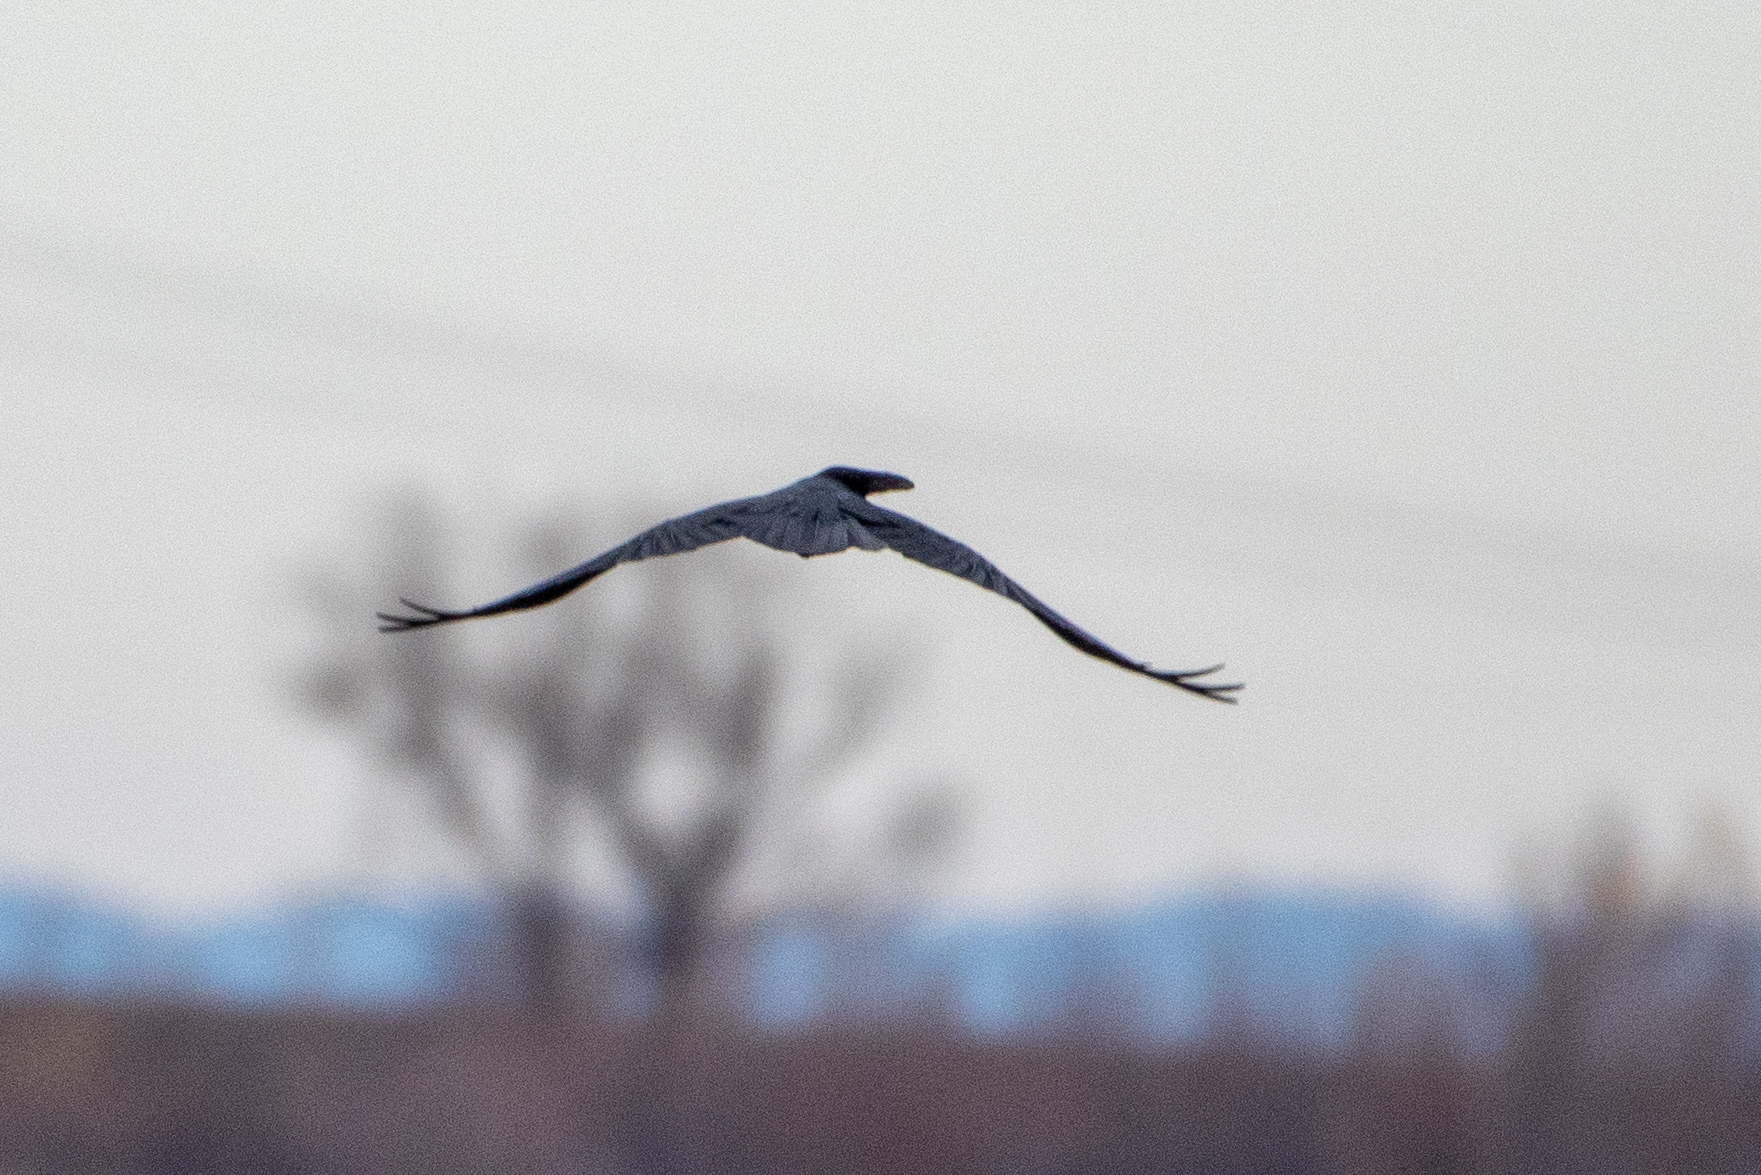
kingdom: Animalia
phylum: Chordata
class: Aves
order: Passeriformes
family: Corvidae
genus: Corvus
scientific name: Corvus corax
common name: Common raven
